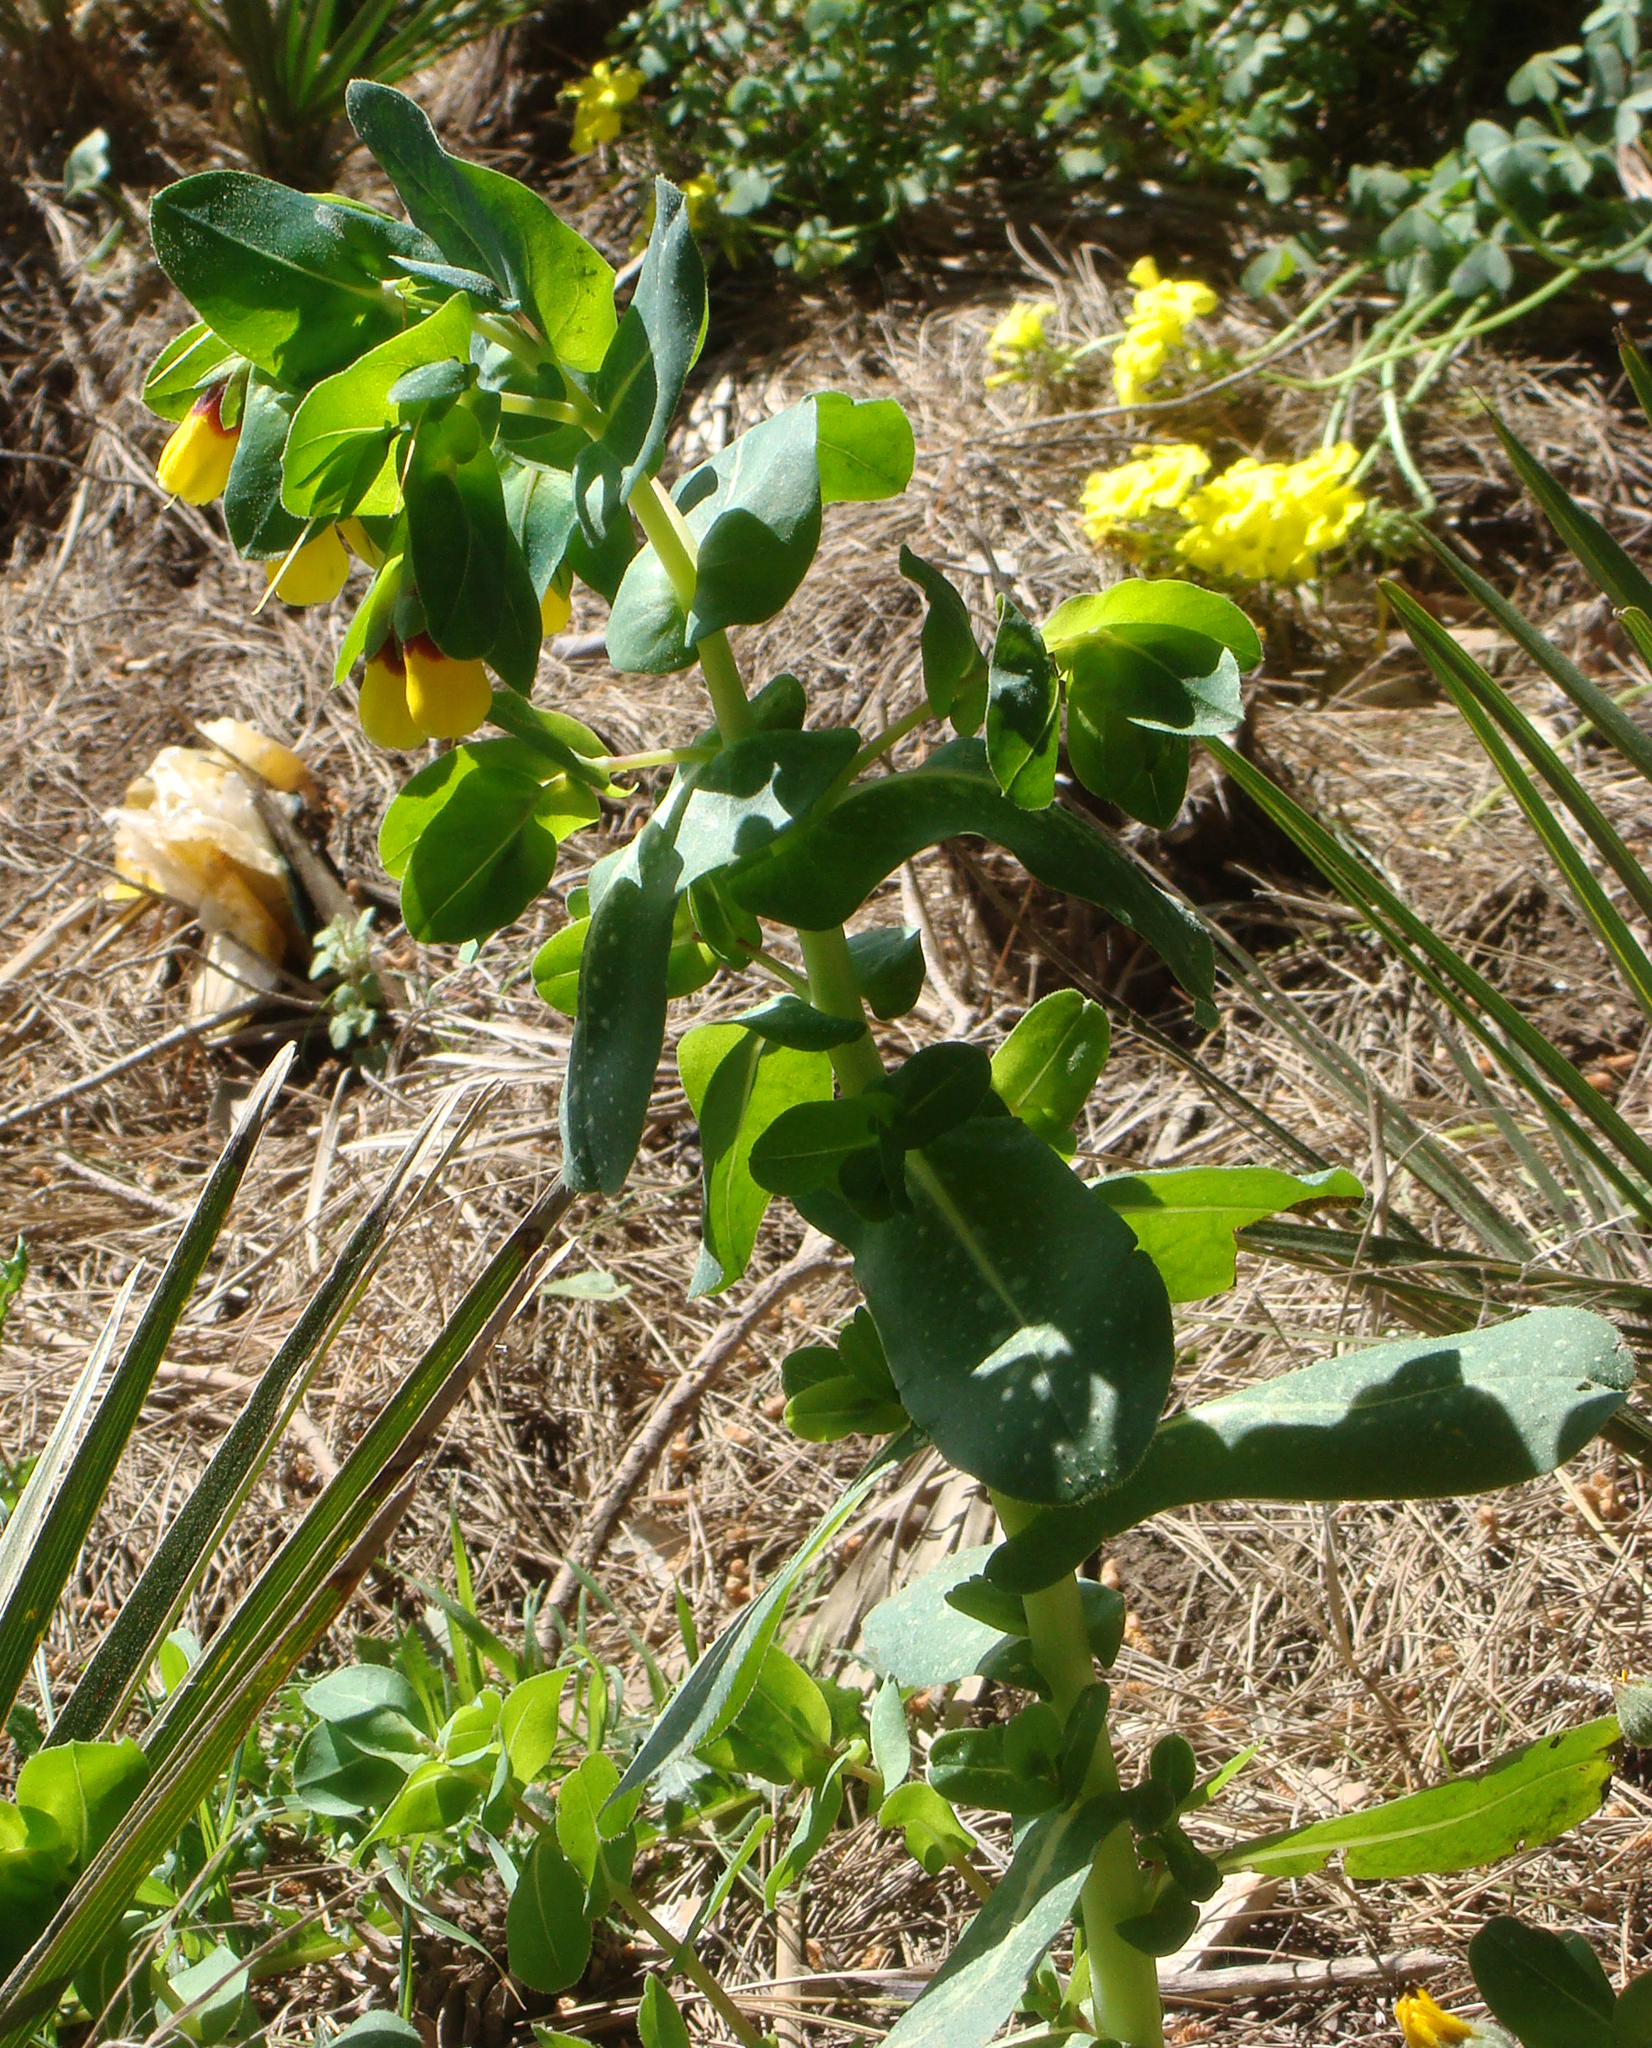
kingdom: Plantae
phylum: Tracheophyta
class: Magnoliopsida
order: Boraginales
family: Boraginaceae
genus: Cerinthe
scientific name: Cerinthe major
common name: Greater honeywort
